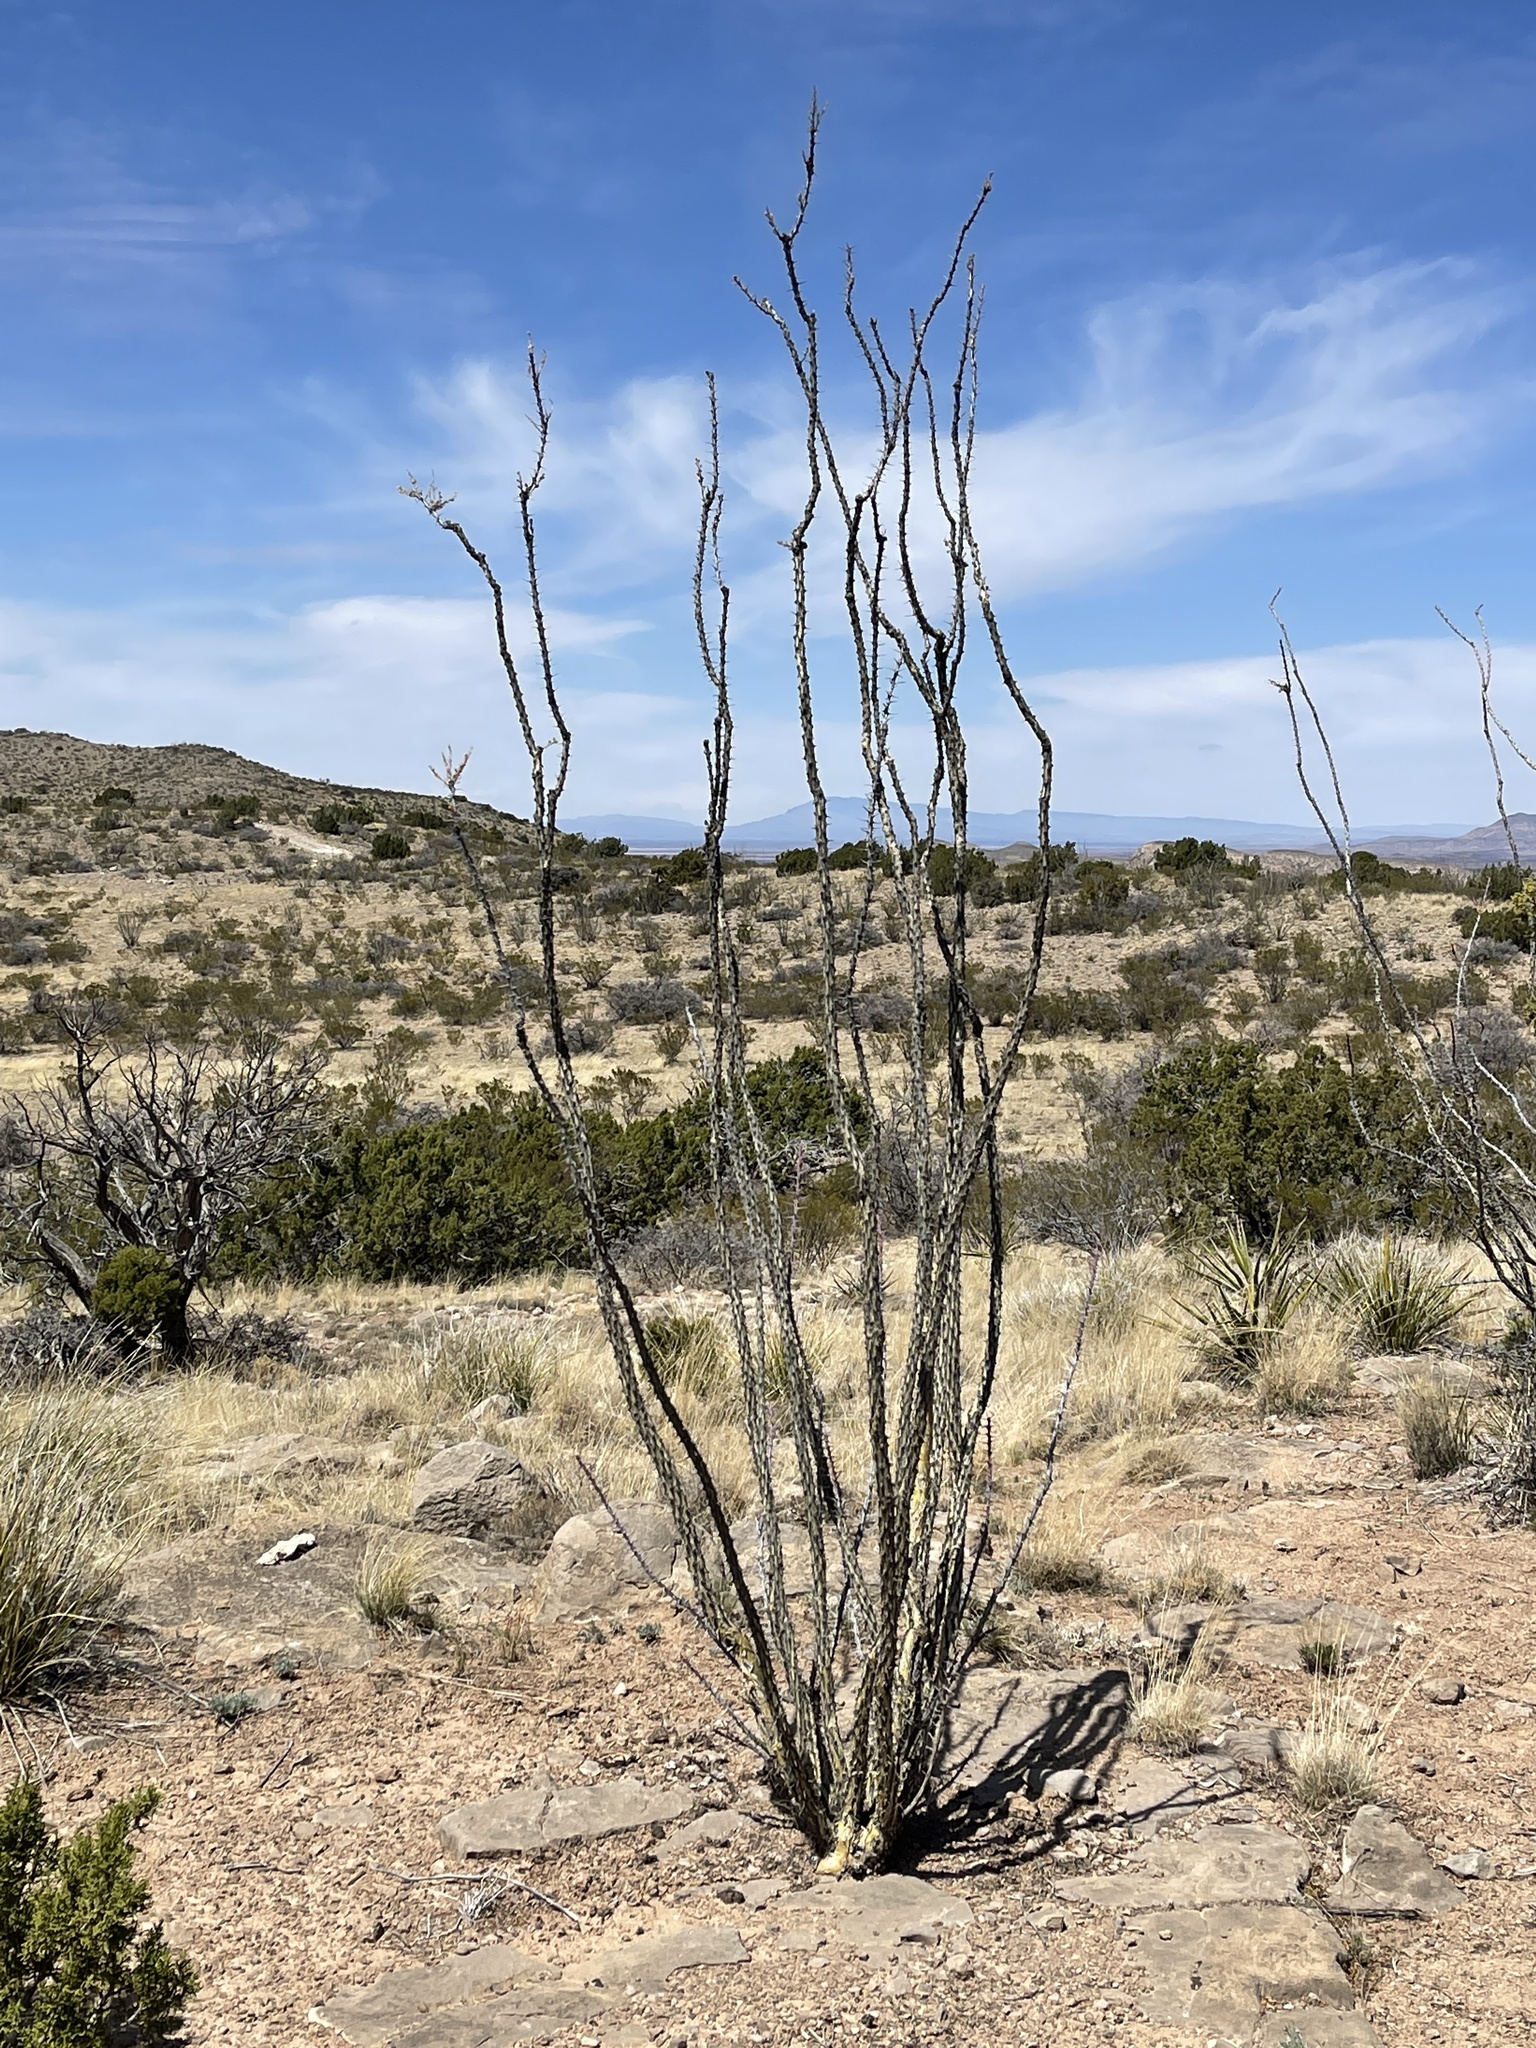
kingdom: Plantae
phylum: Tracheophyta
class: Magnoliopsida
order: Ericales
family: Fouquieriaceae
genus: Fouquieria
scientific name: Fouquieria splendens
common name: Vine-cactus
